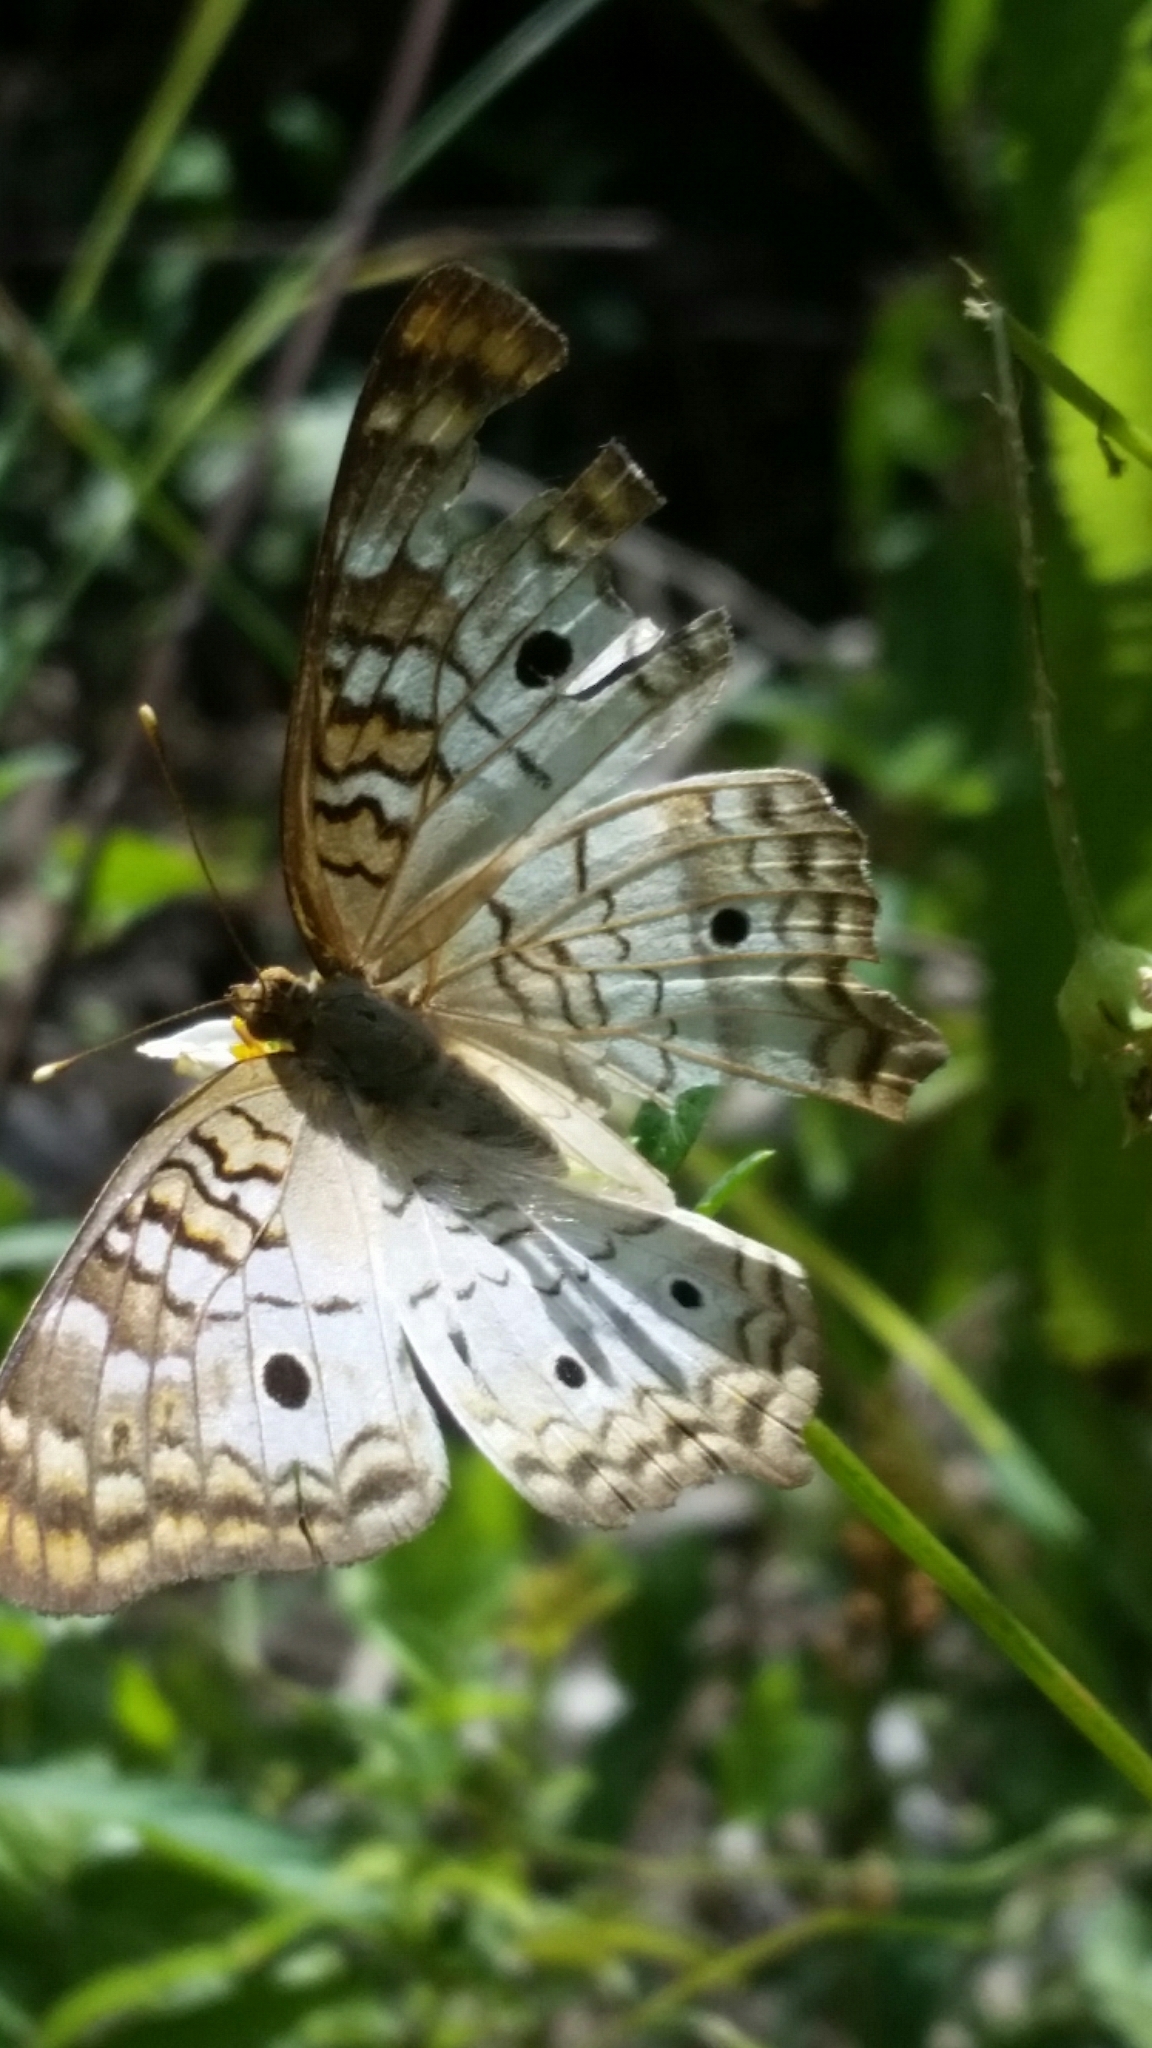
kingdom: Animalia
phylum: Arthropoda
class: Insecta
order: Lepidoptera
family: Nymphalidae
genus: Anartia
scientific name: Anartia jatrophae
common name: White peacock
